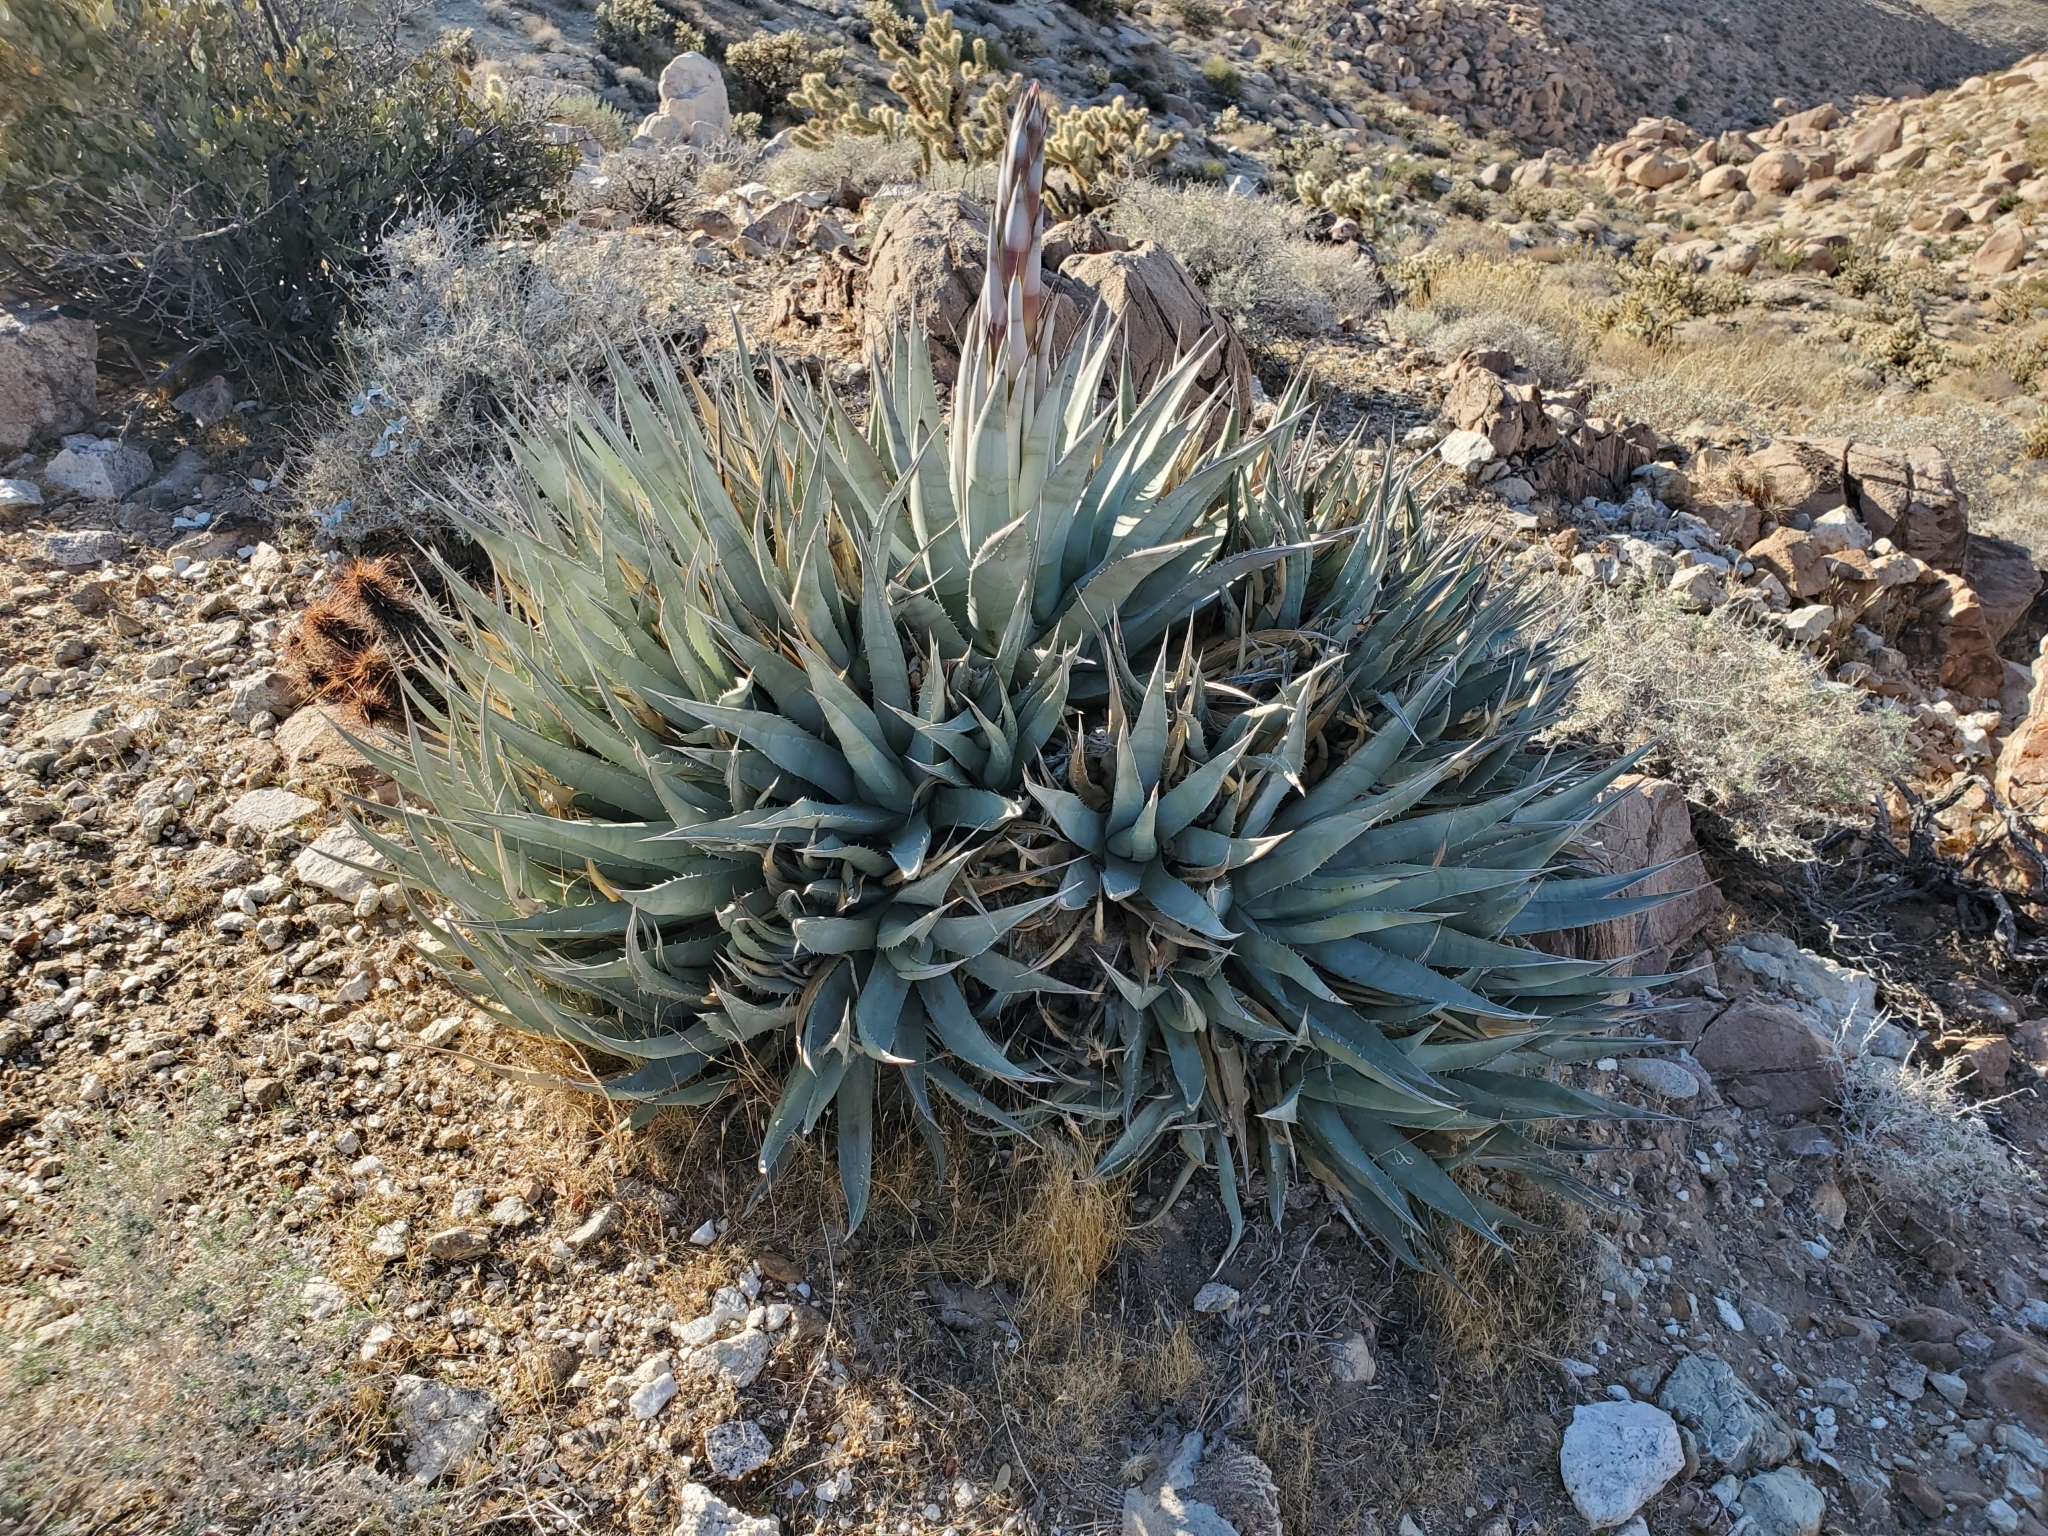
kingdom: Plantae
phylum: Tracheophyta
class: Liliopsida
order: Asparagales
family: Asparagaceae
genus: Agave
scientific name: Agave deserti
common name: Desert agave
